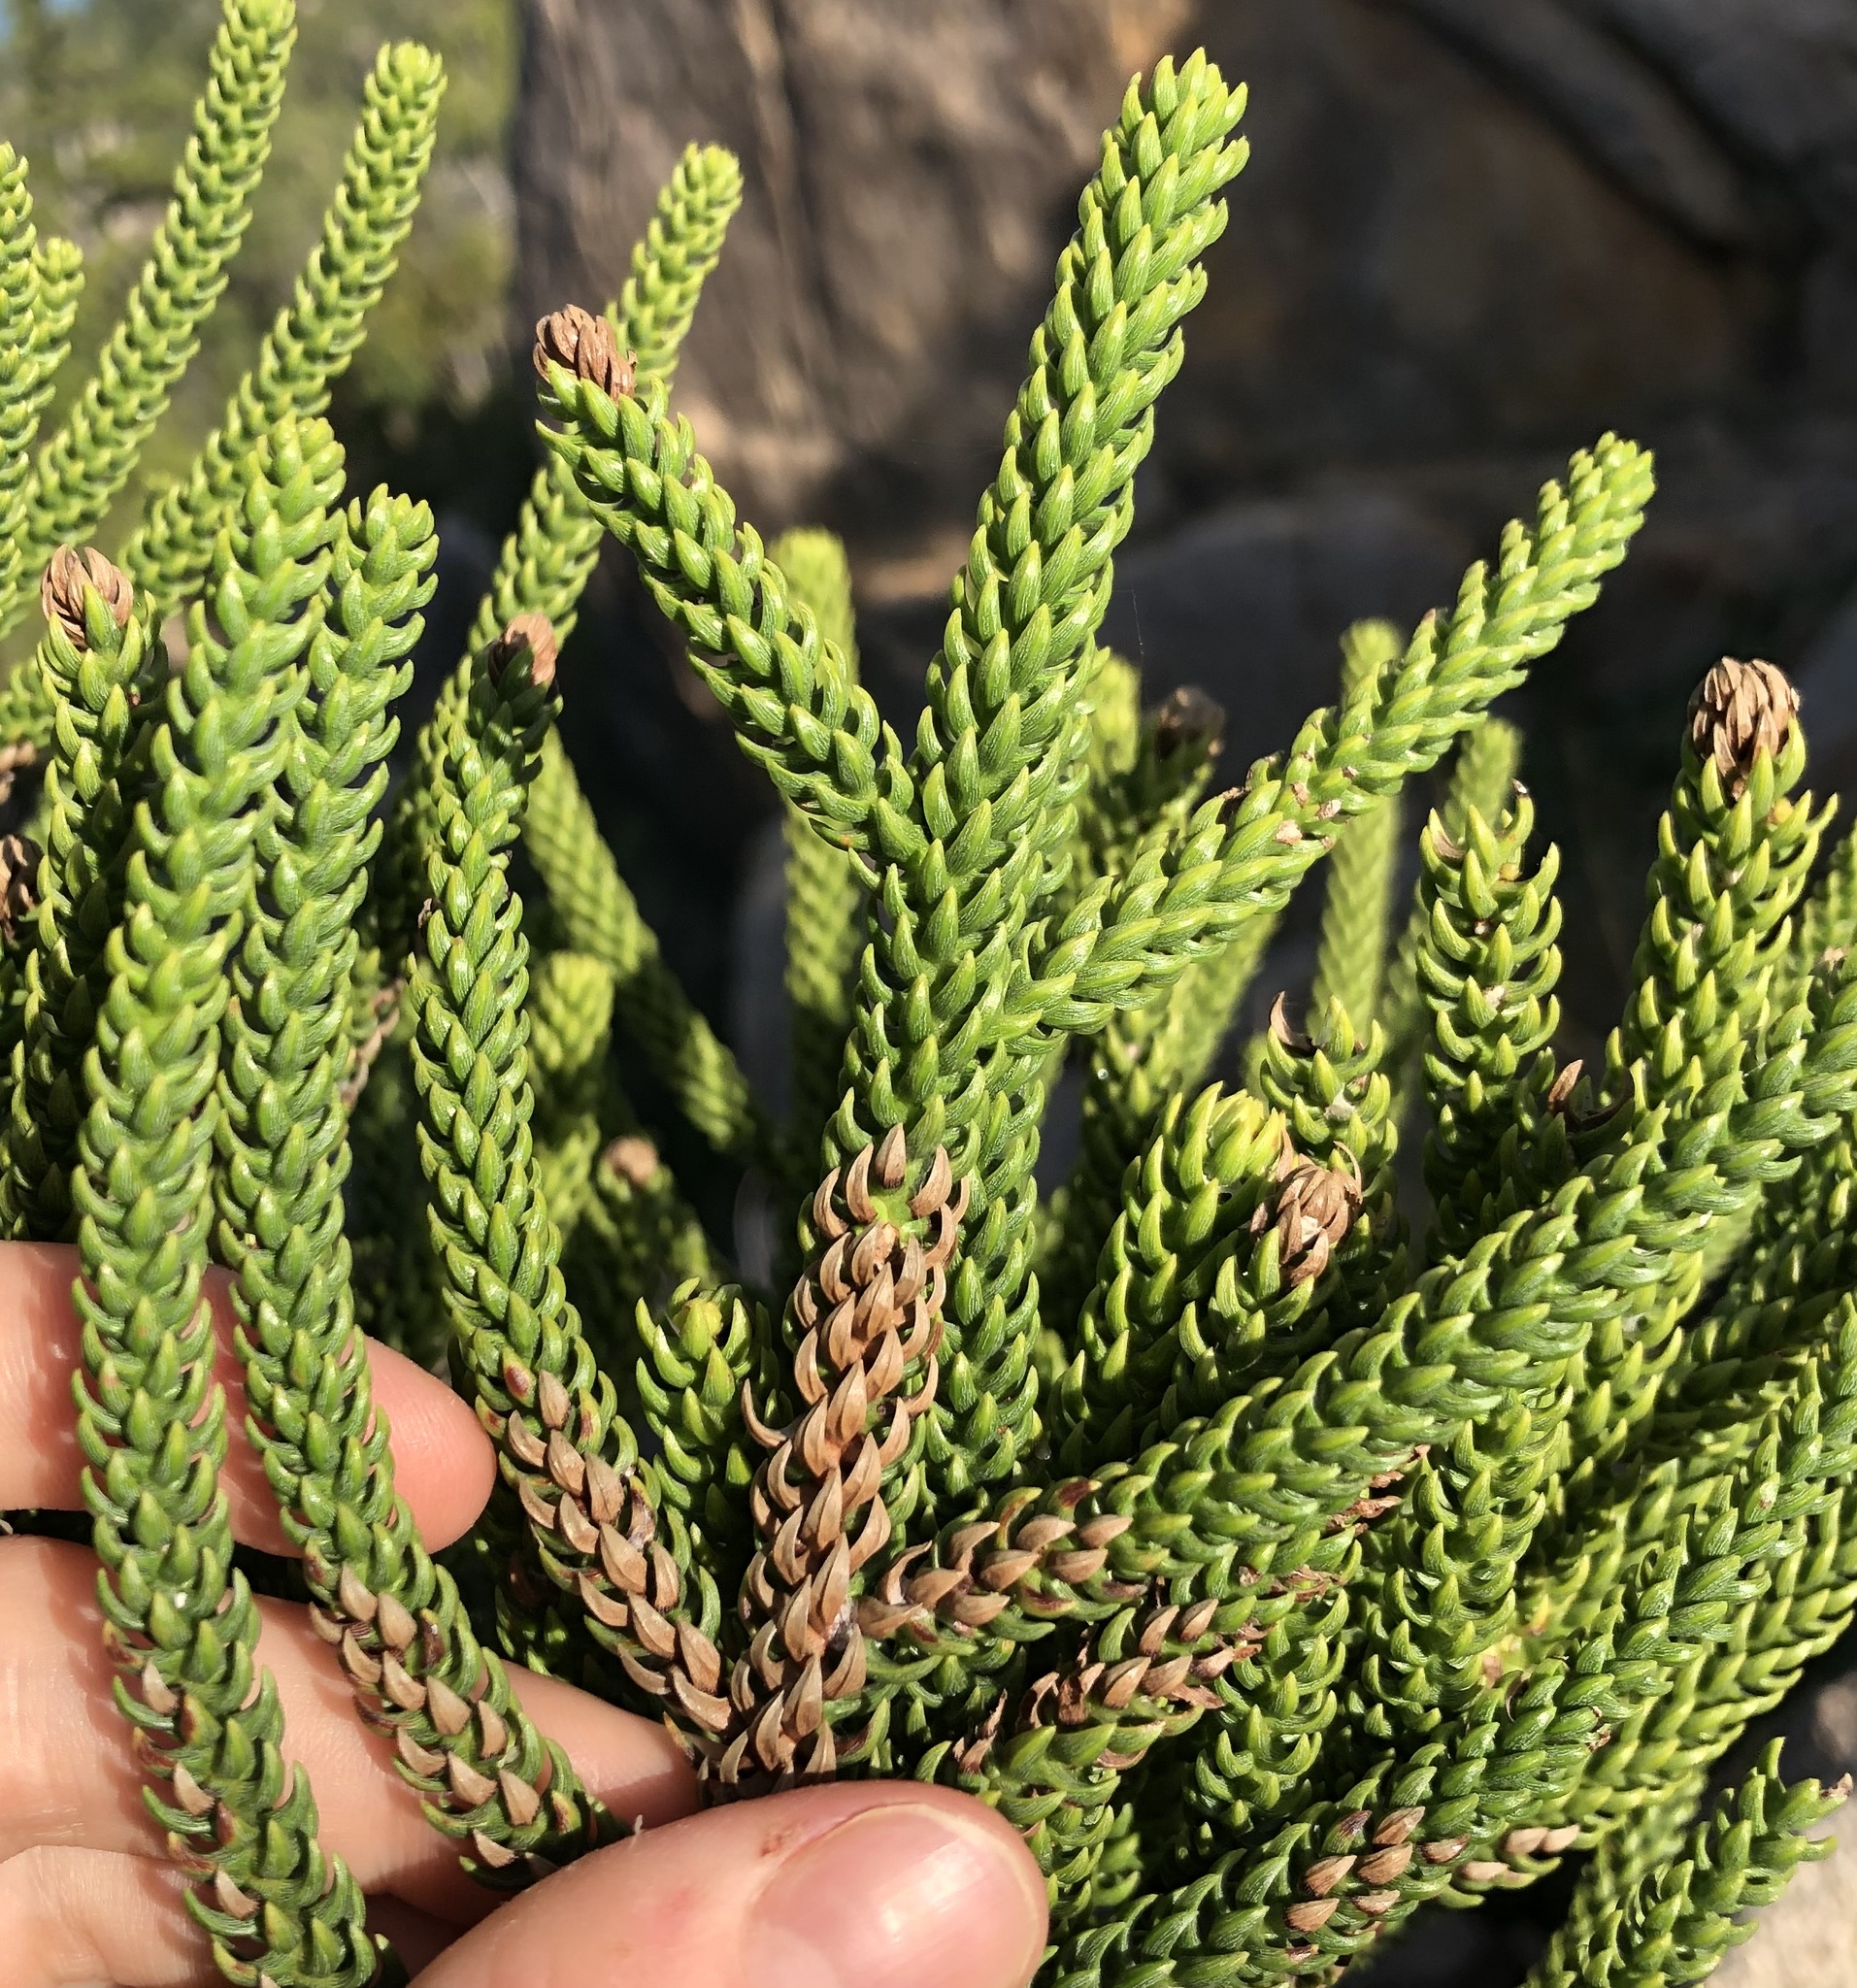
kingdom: Plantae
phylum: Tracheophyta
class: Pinopsida
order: Pinales
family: Araucariaceae
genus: Araucaria
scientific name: Araucaria cunninghamii
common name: Colonial pine
